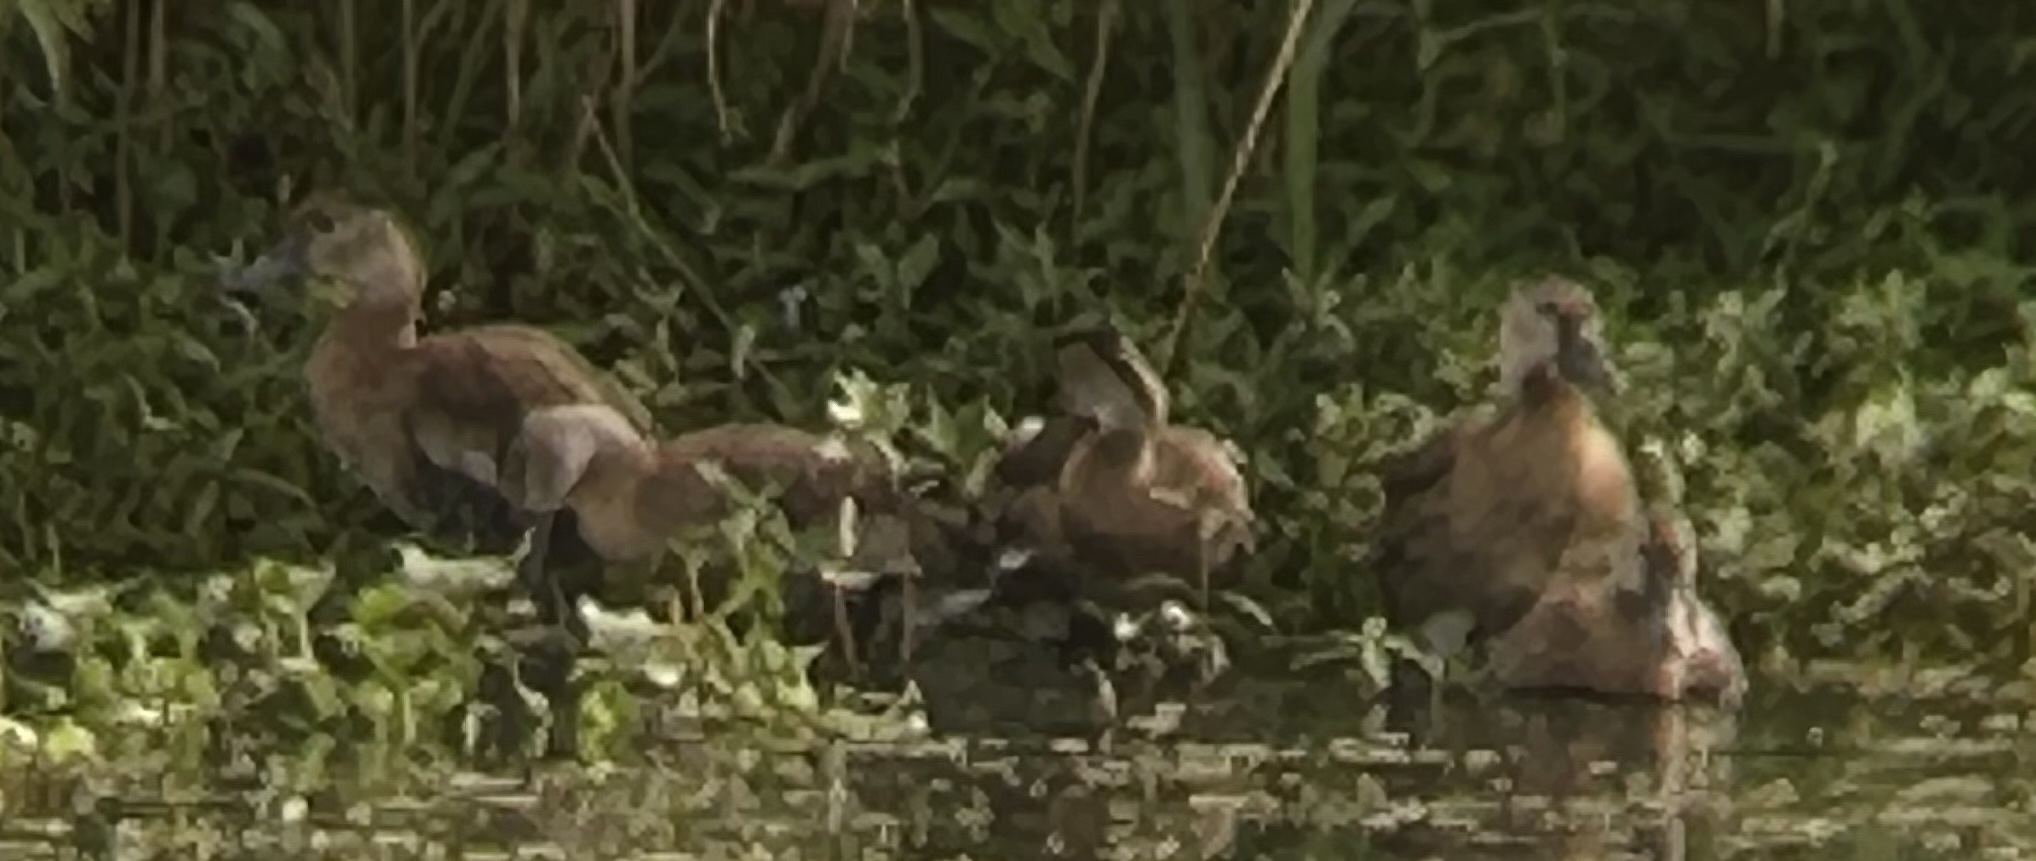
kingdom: Animalia
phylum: Chordata
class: Aves
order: Anseriformes
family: Anatidae
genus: Dendrocygna
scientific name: Dendrocygna autumnalis
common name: Black-bellied whistling duck
